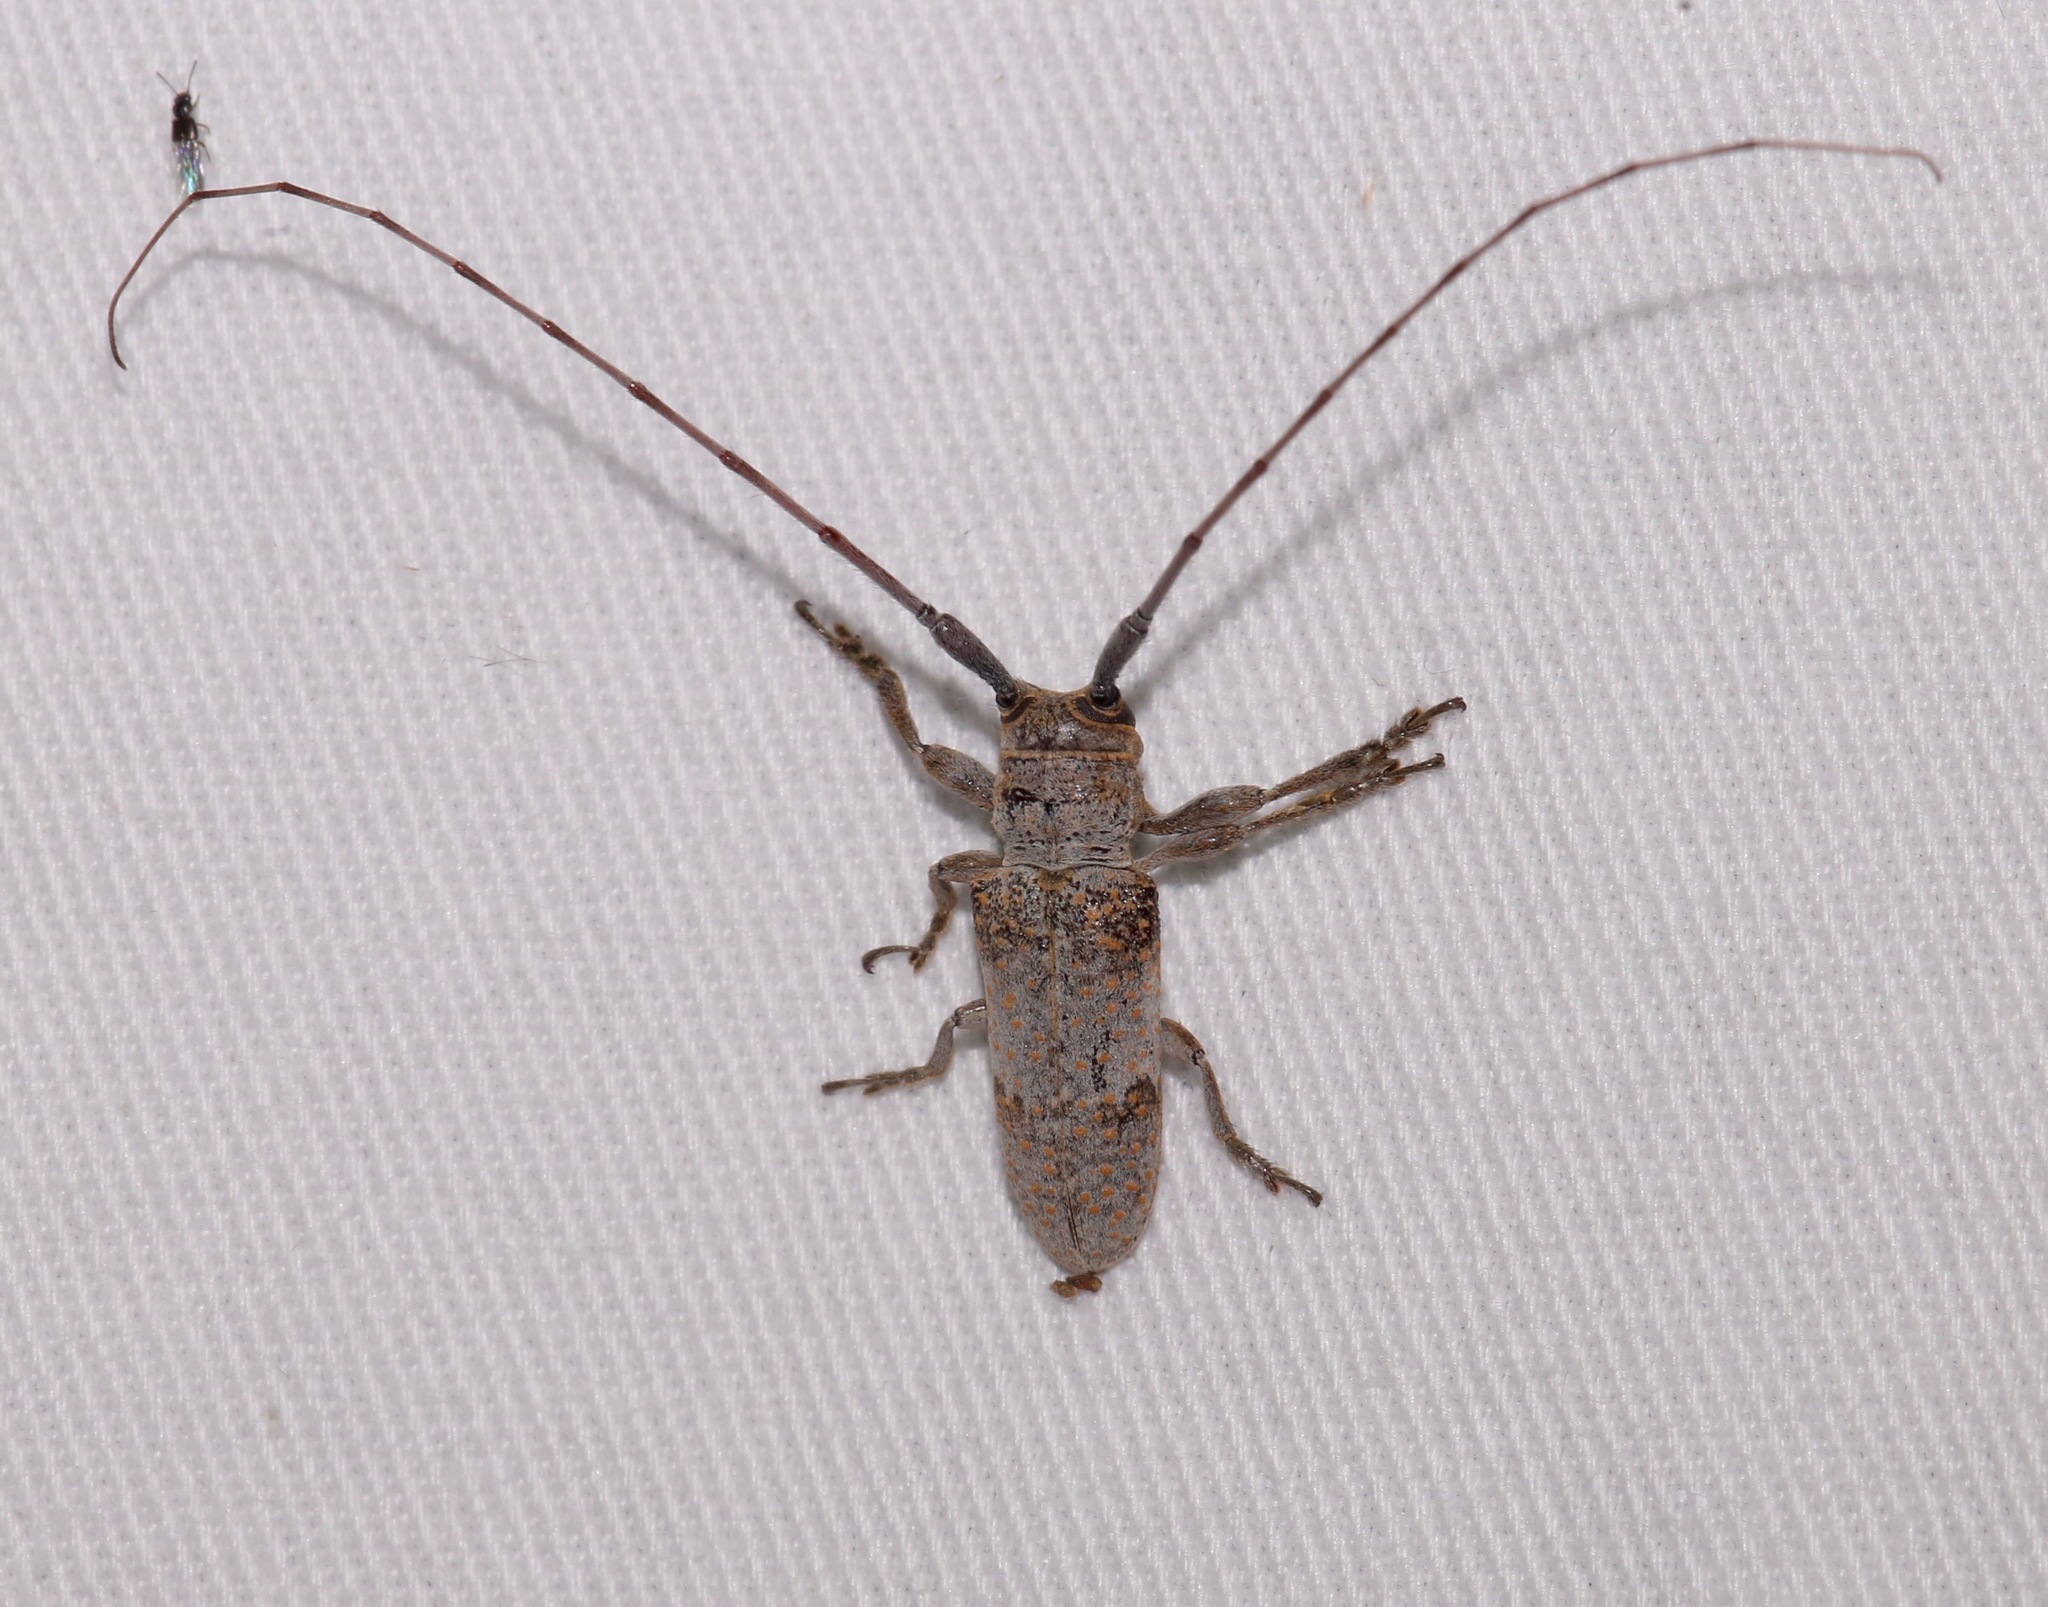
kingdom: Animalia
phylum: Arthropoda
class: Insecta
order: Coleoptera
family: Cerambycidae
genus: Oncideres
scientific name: Oncideres cingulata
